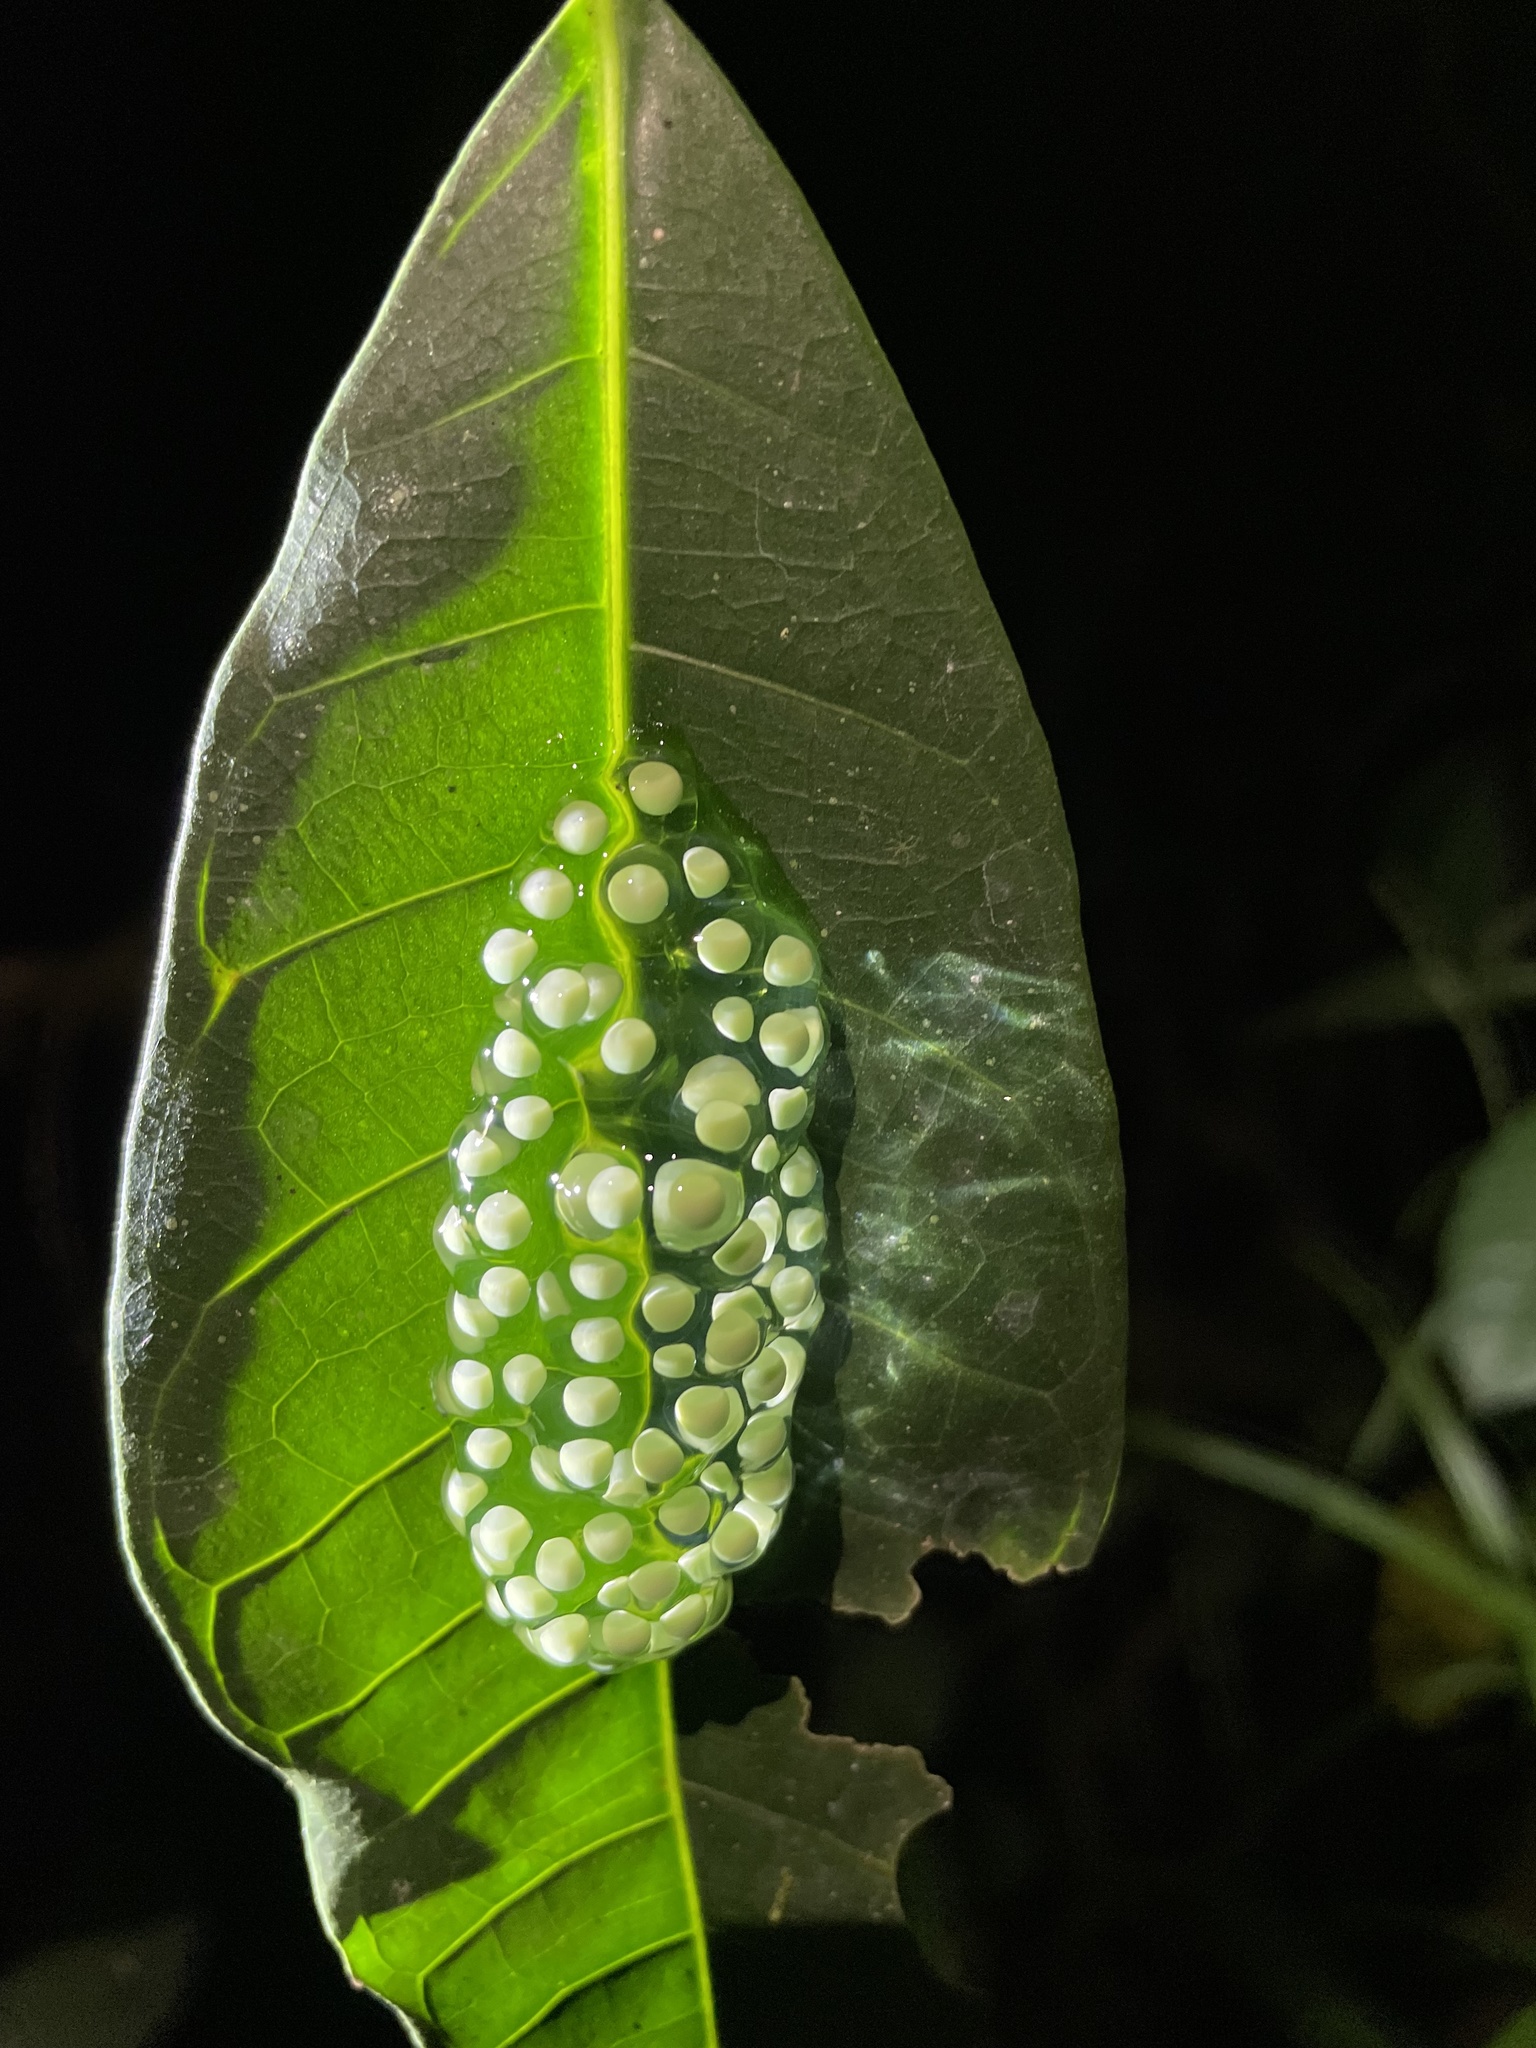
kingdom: Animalia
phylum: Chordata
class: Amphibia
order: Anura
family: Phyllomedusidae
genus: Agalychnis
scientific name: Agalychnis callidryas
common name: Red-eyed treefrog
